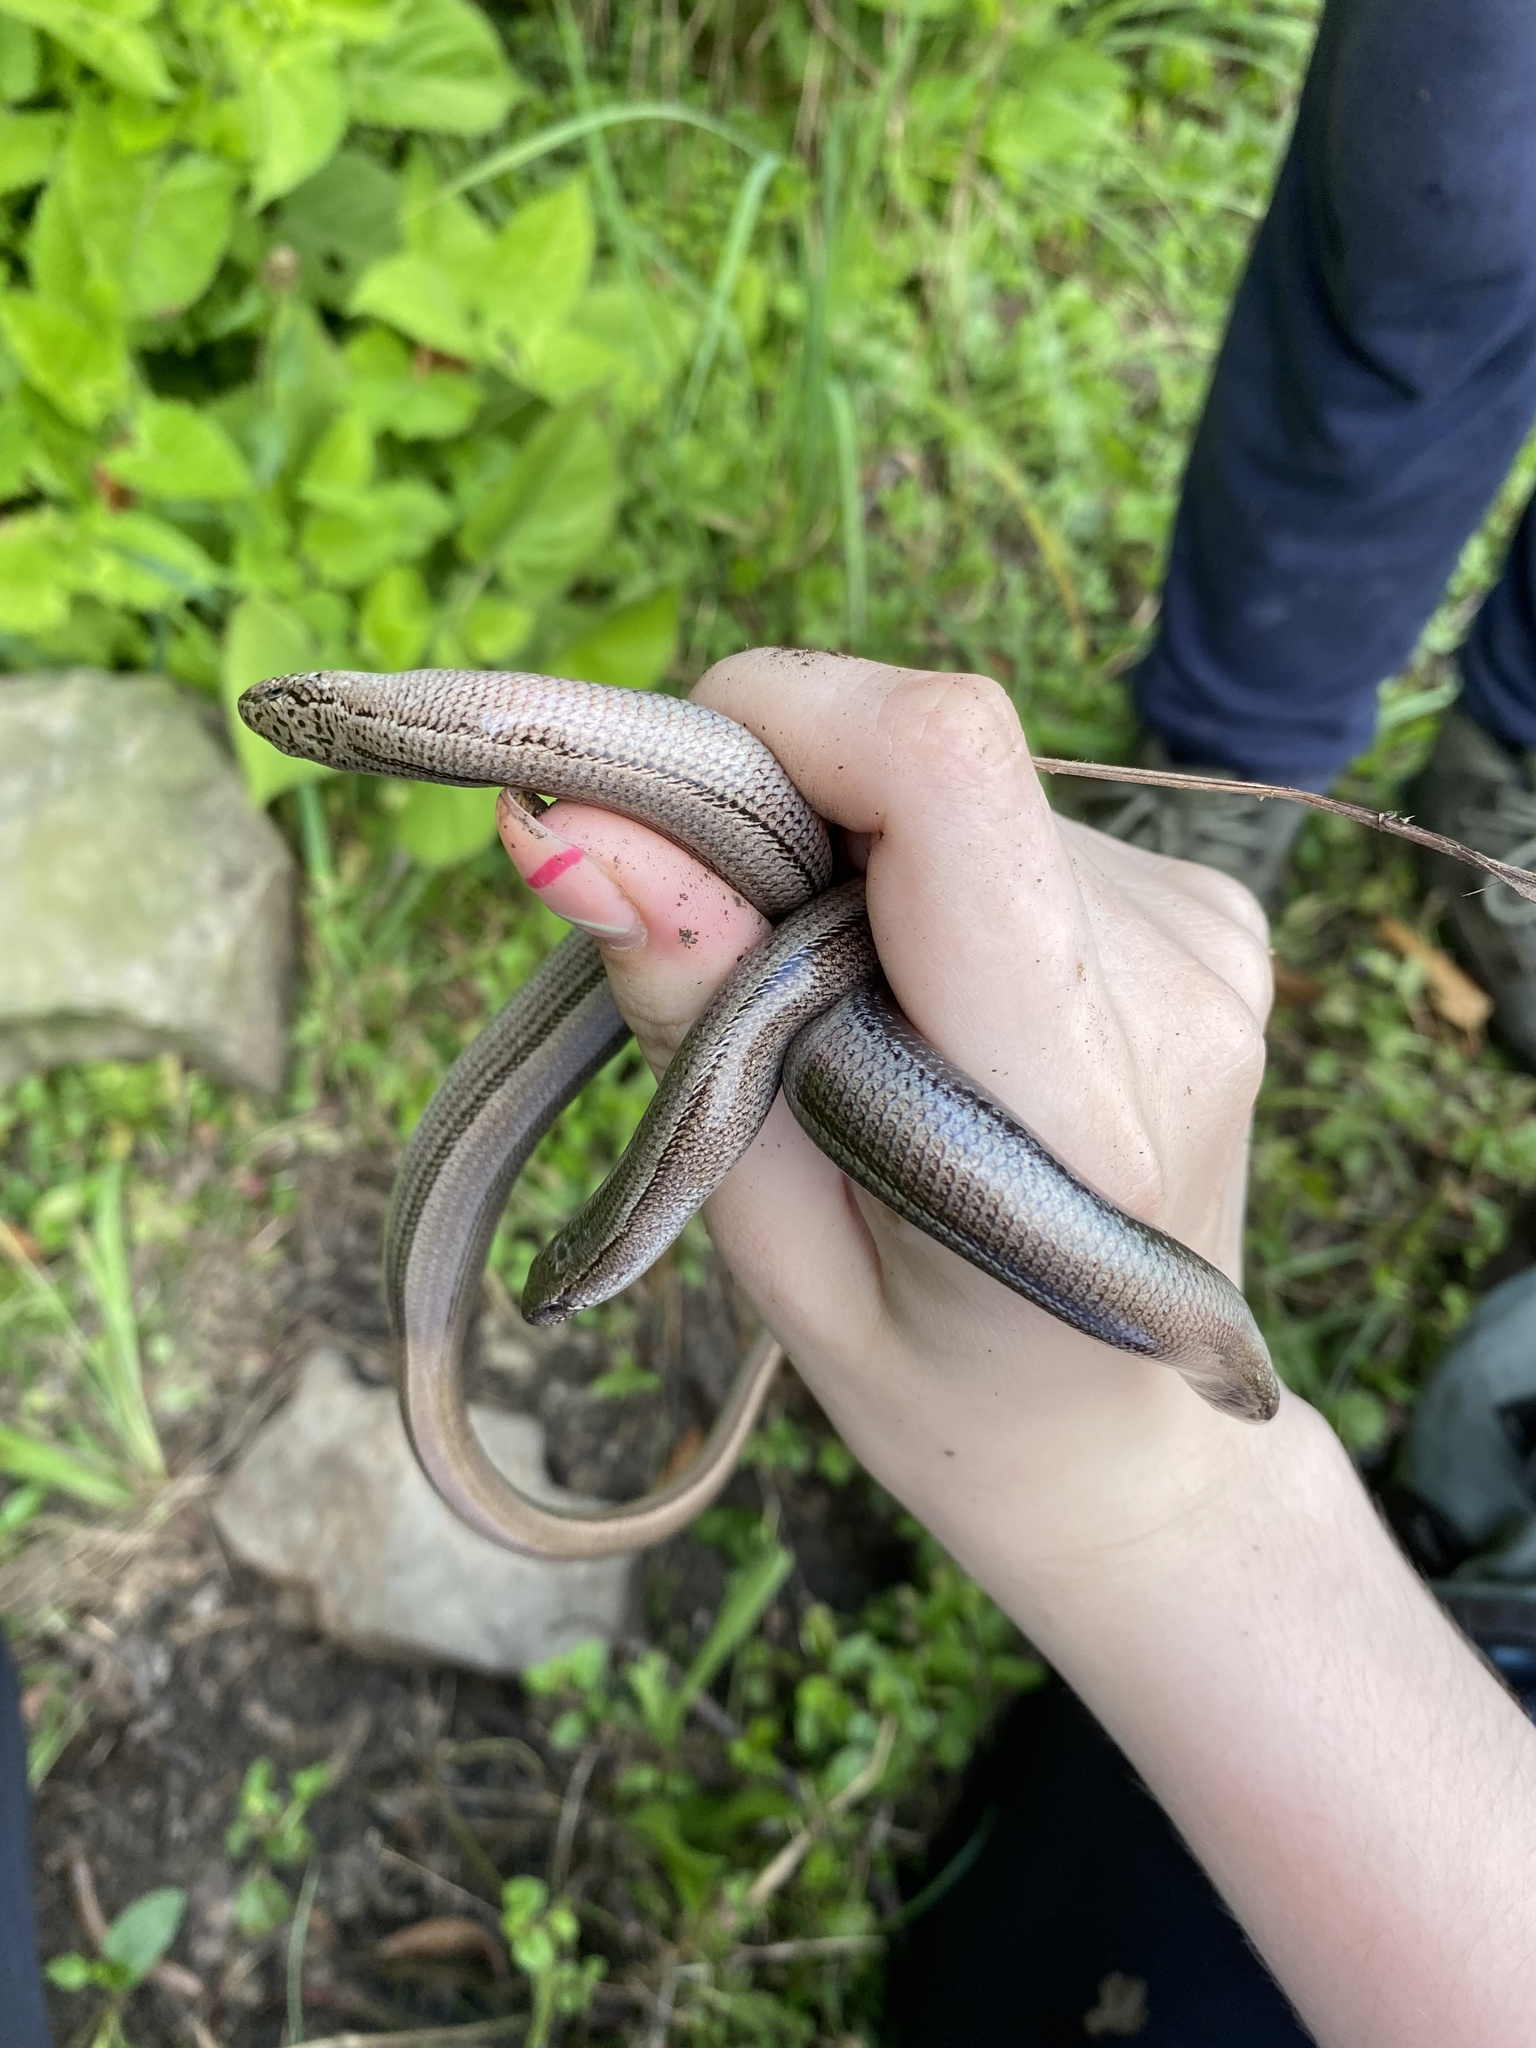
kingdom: Animalia
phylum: Chordata
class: Squamata
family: Anguidae
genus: Anguis
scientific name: Anguis colchica
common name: Slow worm
